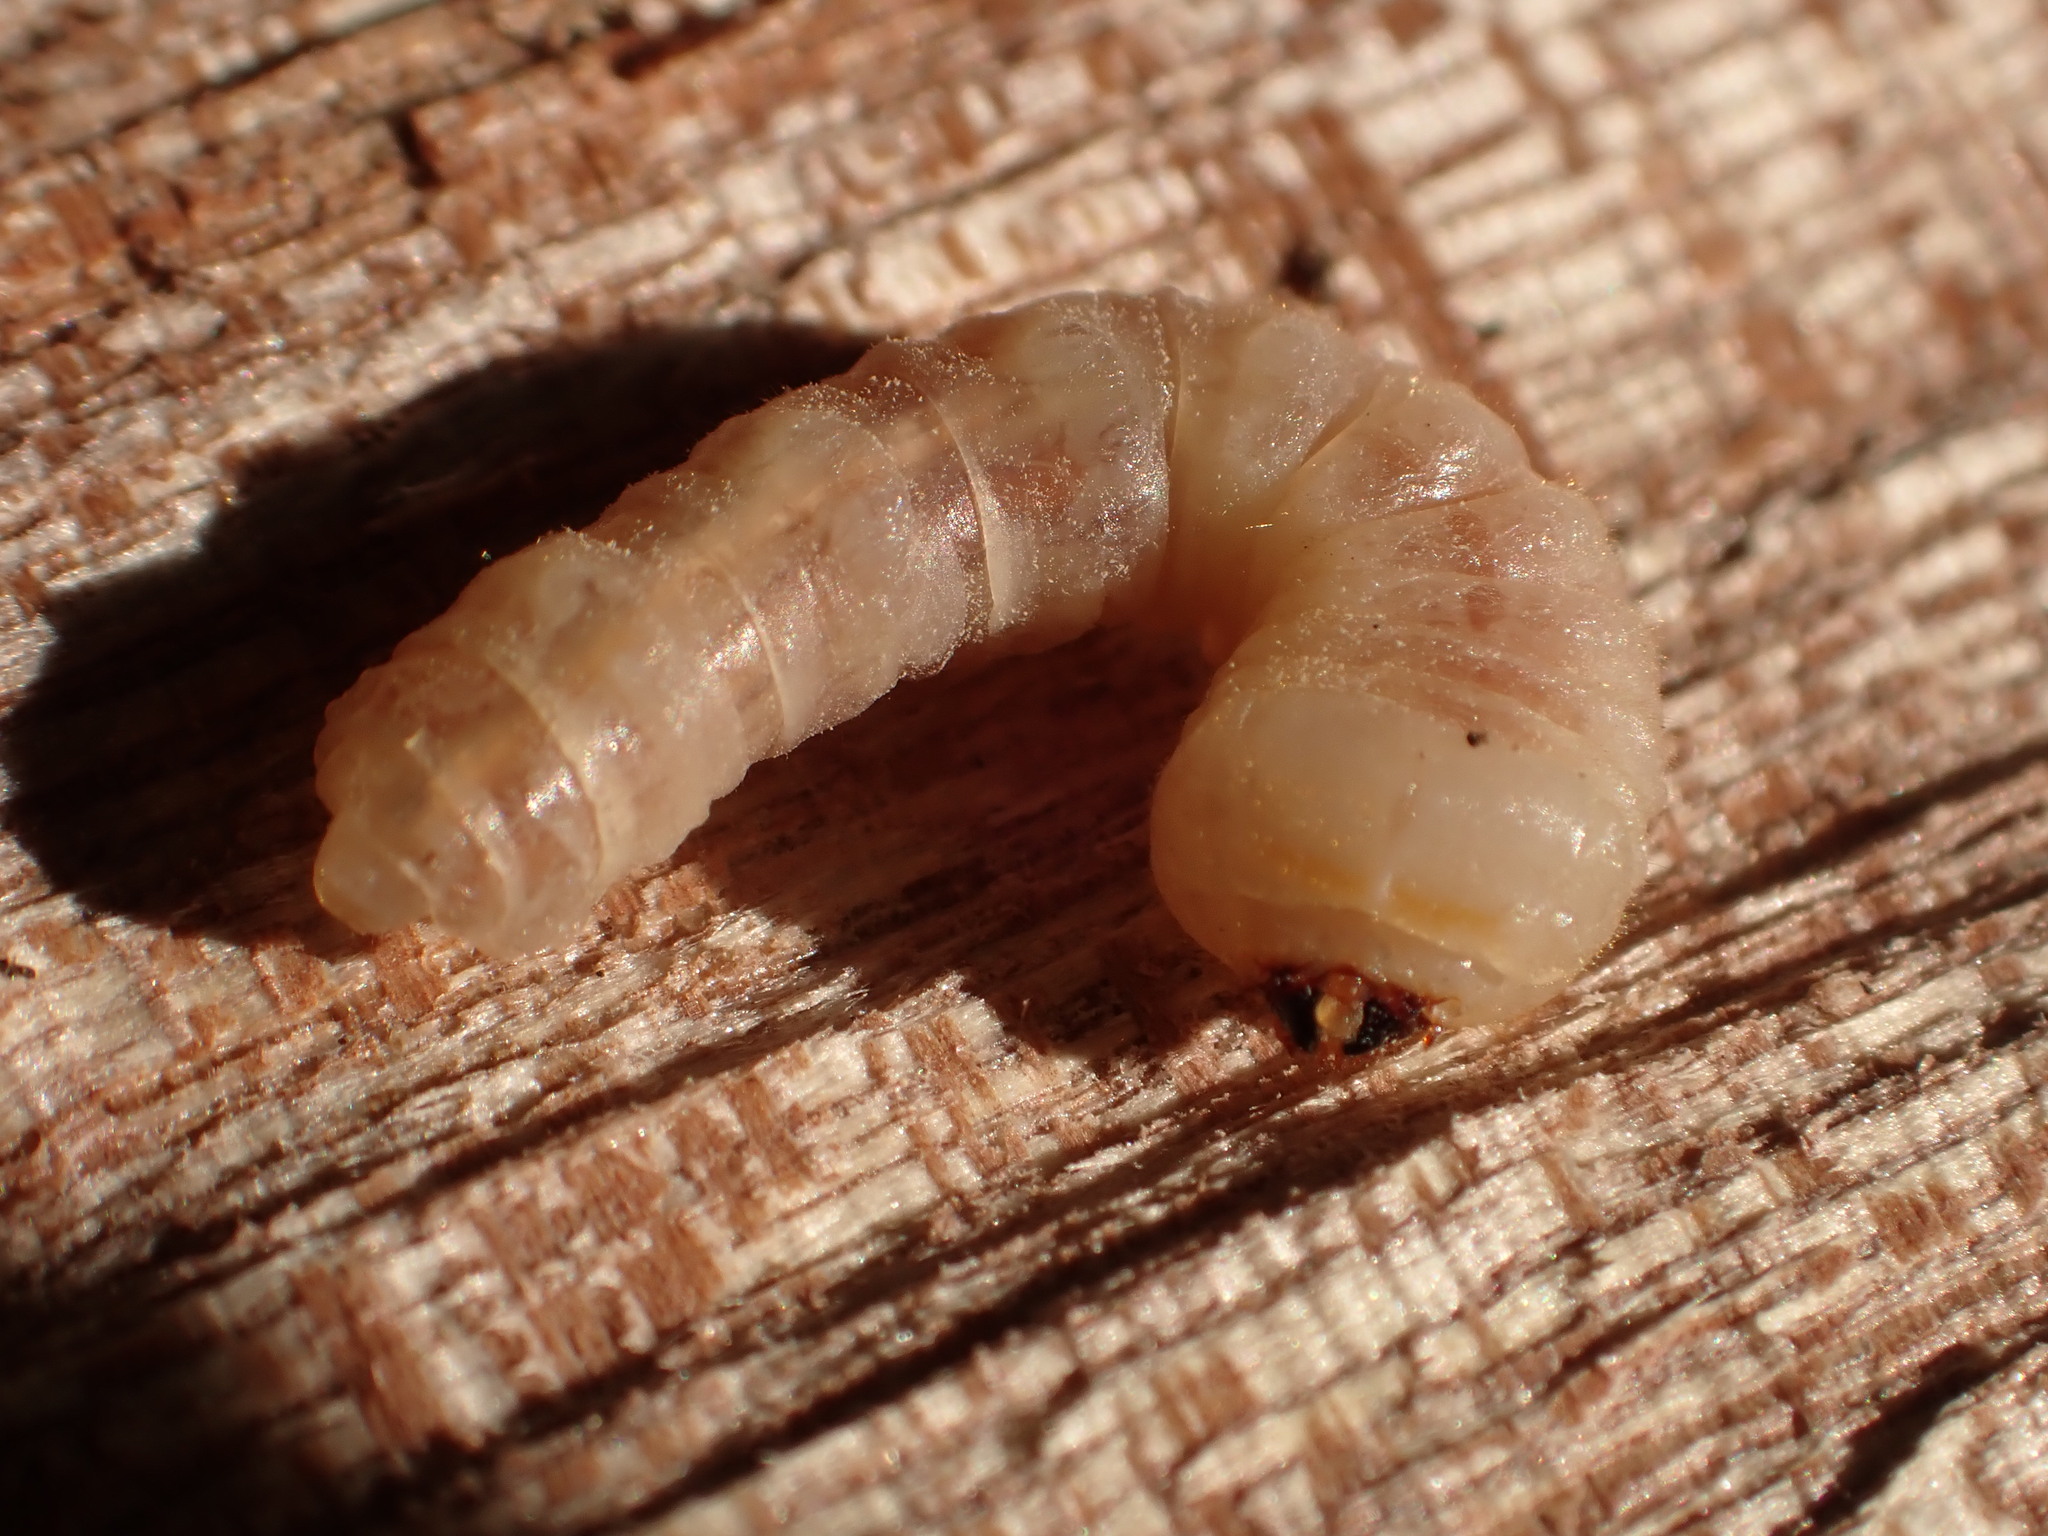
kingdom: Animalia
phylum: Arthropoda
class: Insecta
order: Coleoptera
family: Cerambycidae
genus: Prionoplus
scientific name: Prionoplus reticularis
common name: Huhu beetle
